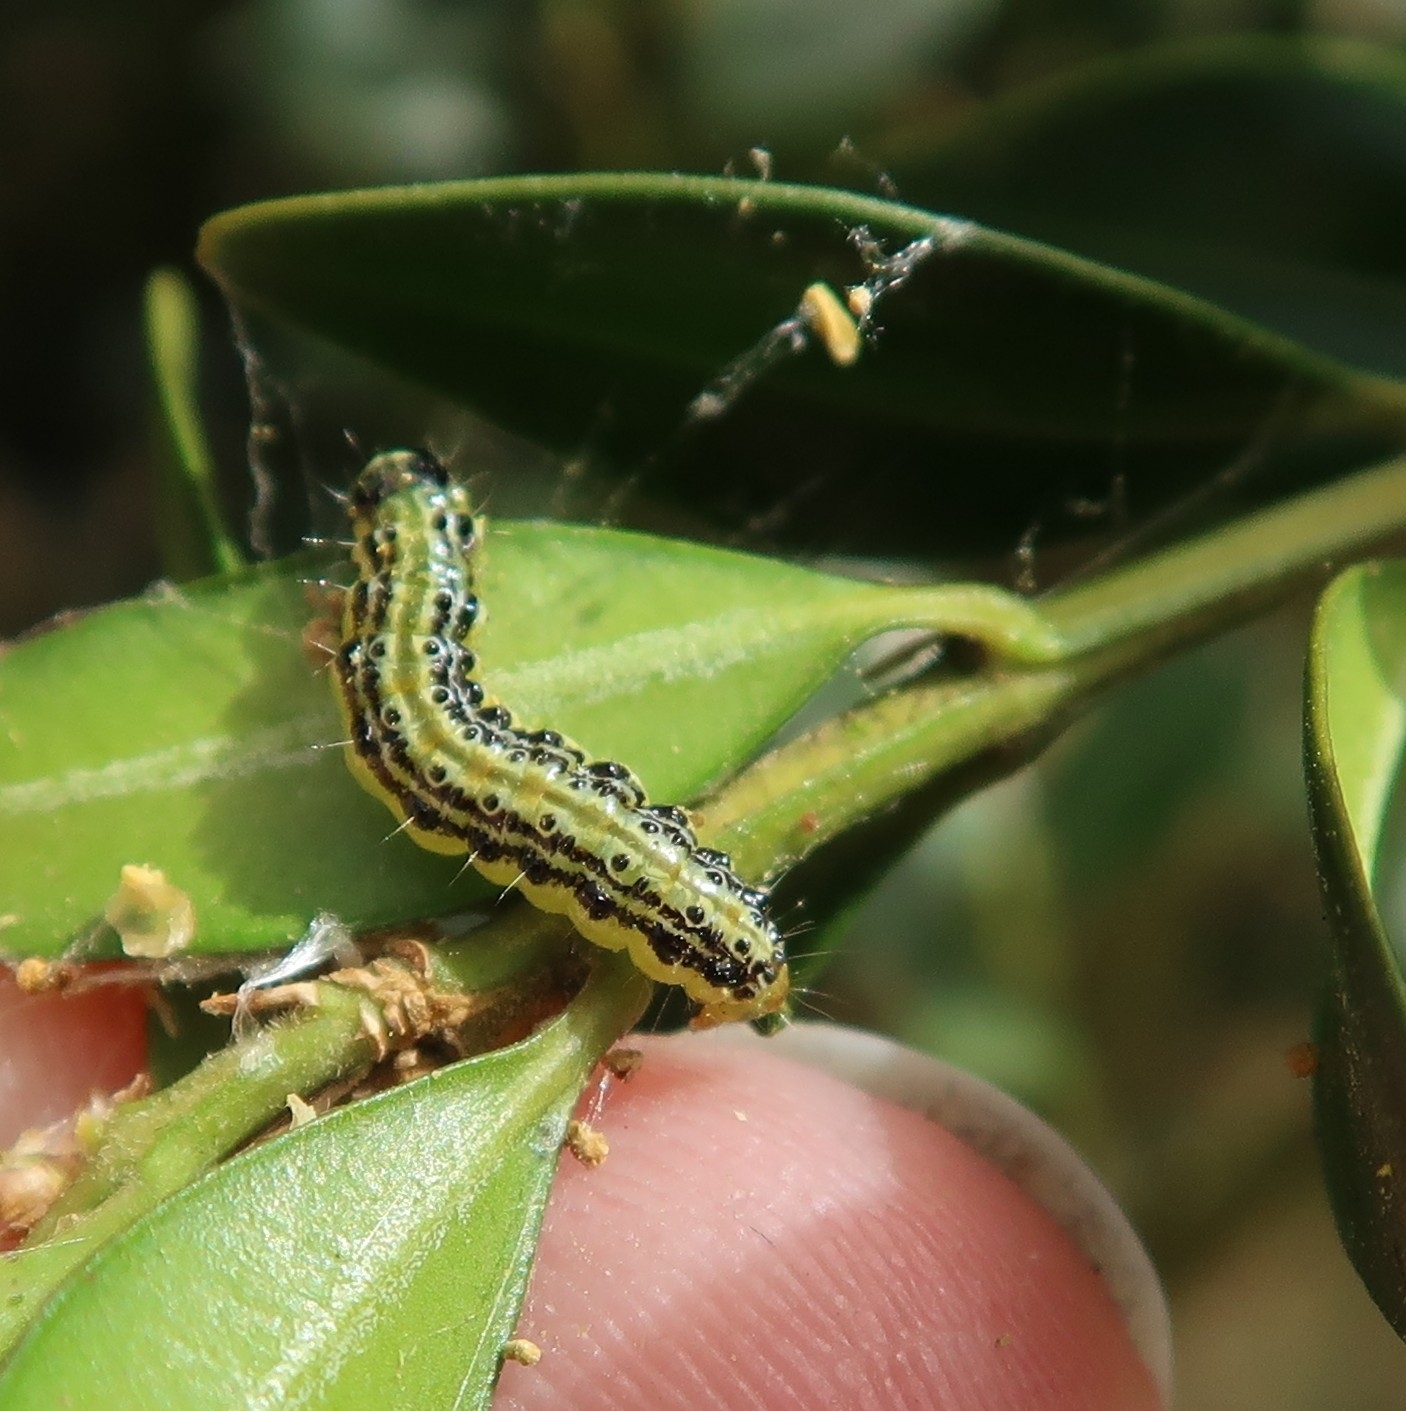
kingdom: Animalia
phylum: Arthropoda
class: Insecta
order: Lepidoptera
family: Crambidae
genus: Cydalima
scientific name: Cydalima perspectalis
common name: Box tree moth
